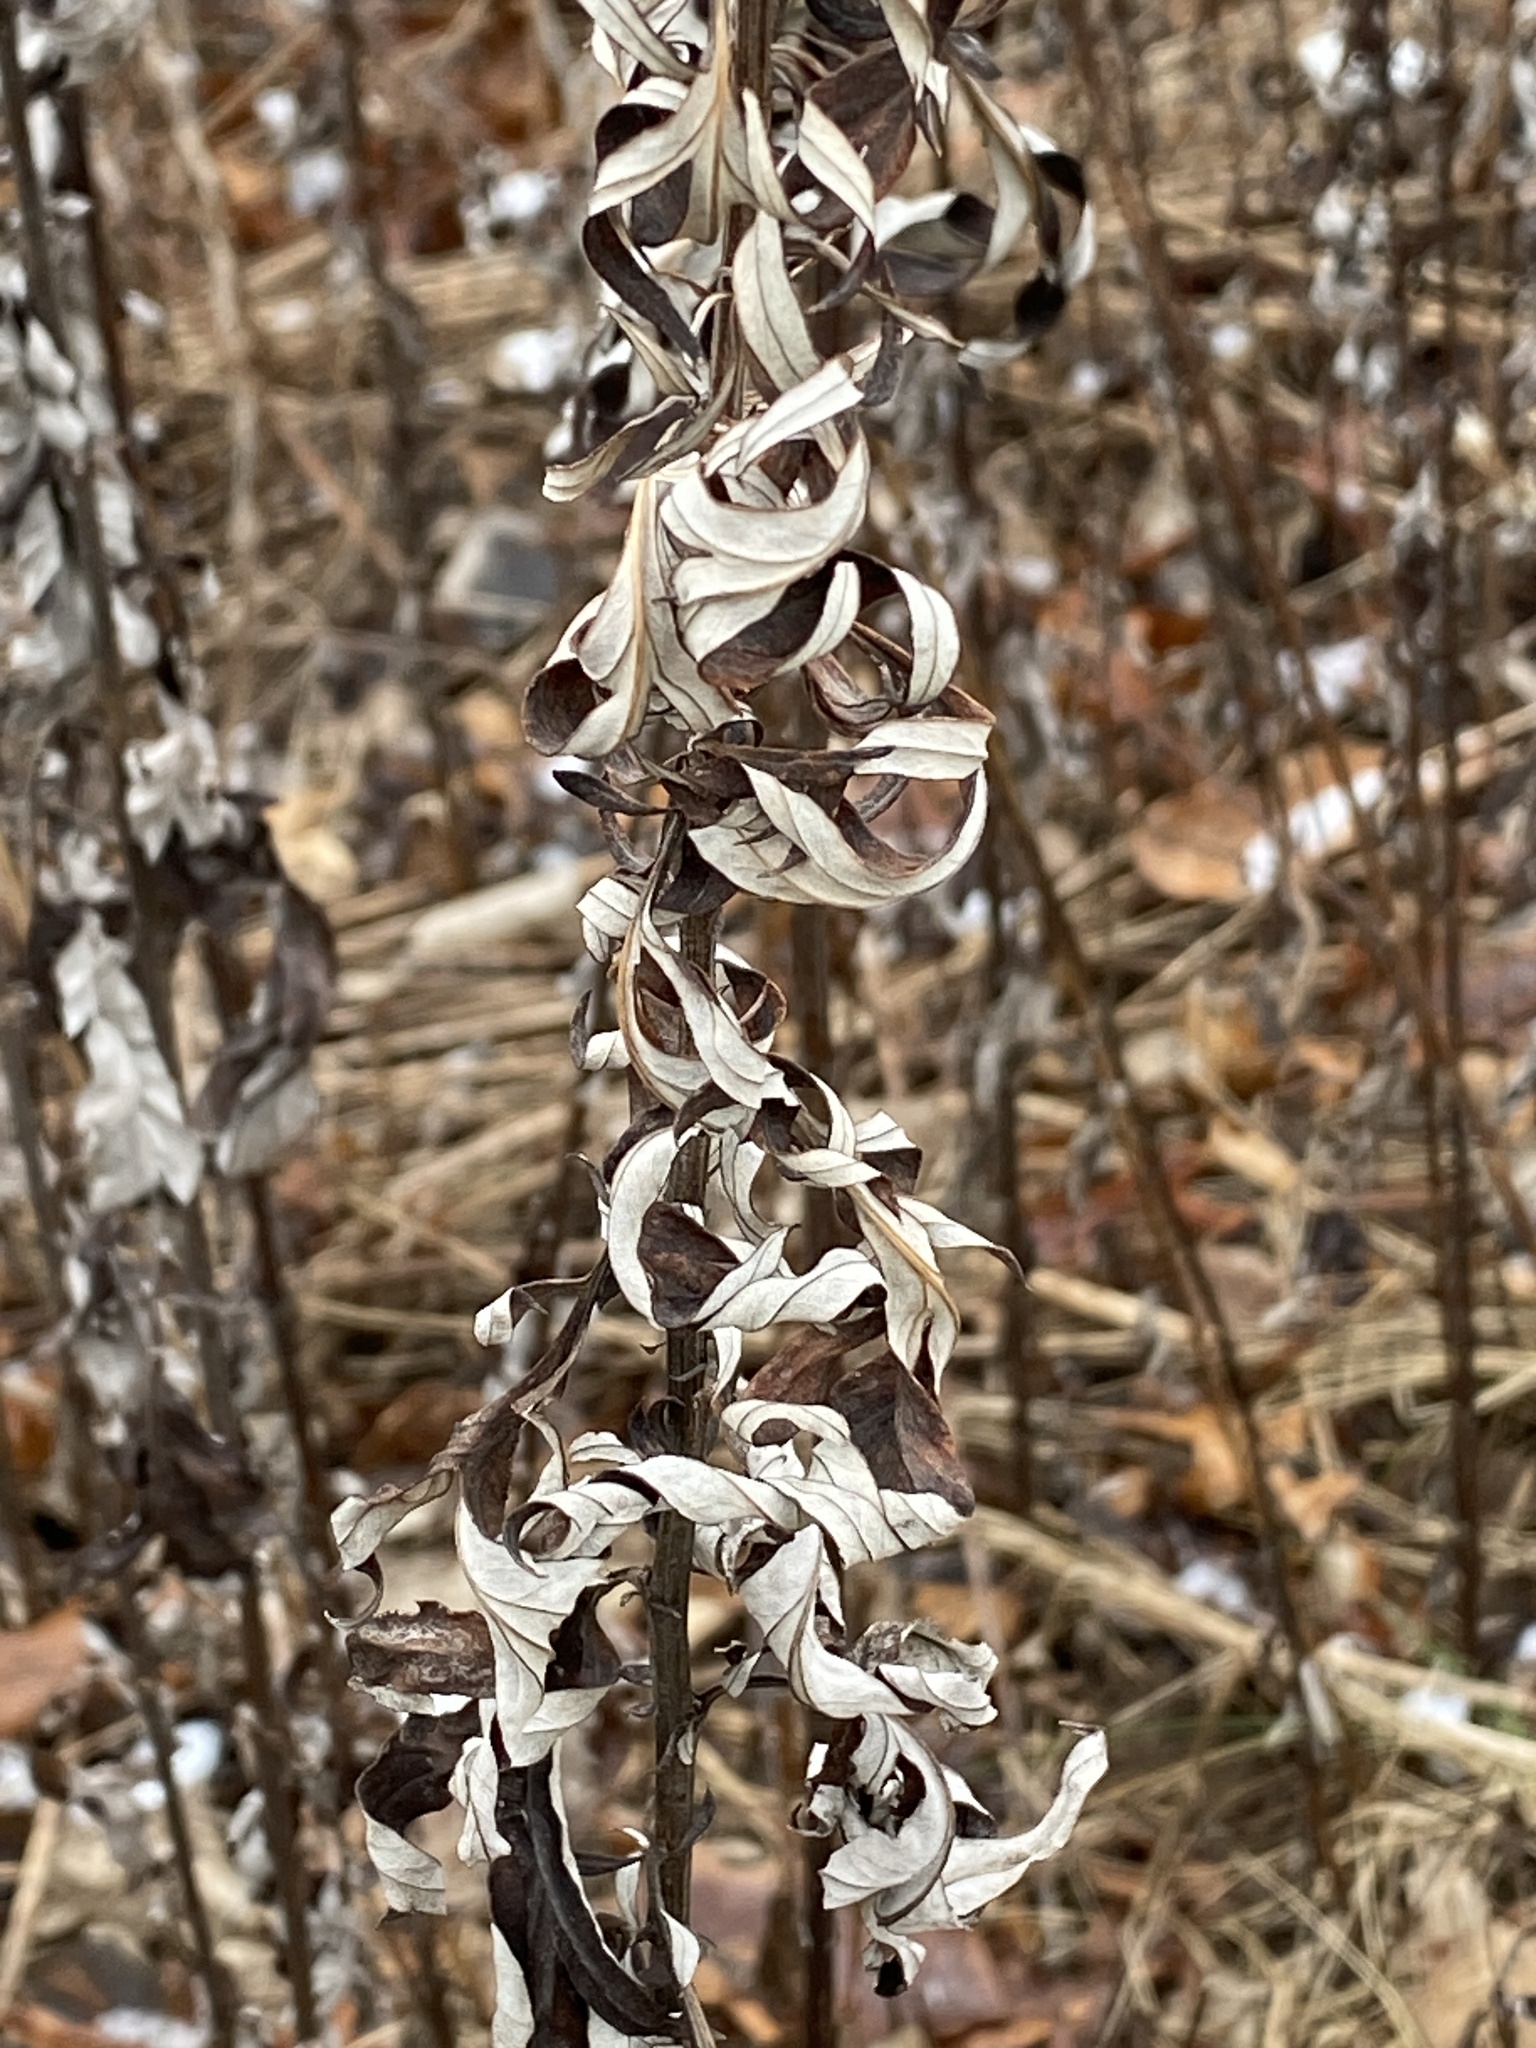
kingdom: Plantae
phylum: Tracheophyta
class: Magnoliopsida
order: Asterales
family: Asteraceae
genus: Artemisia
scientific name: Artemisia vulgaris
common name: Mugwort
